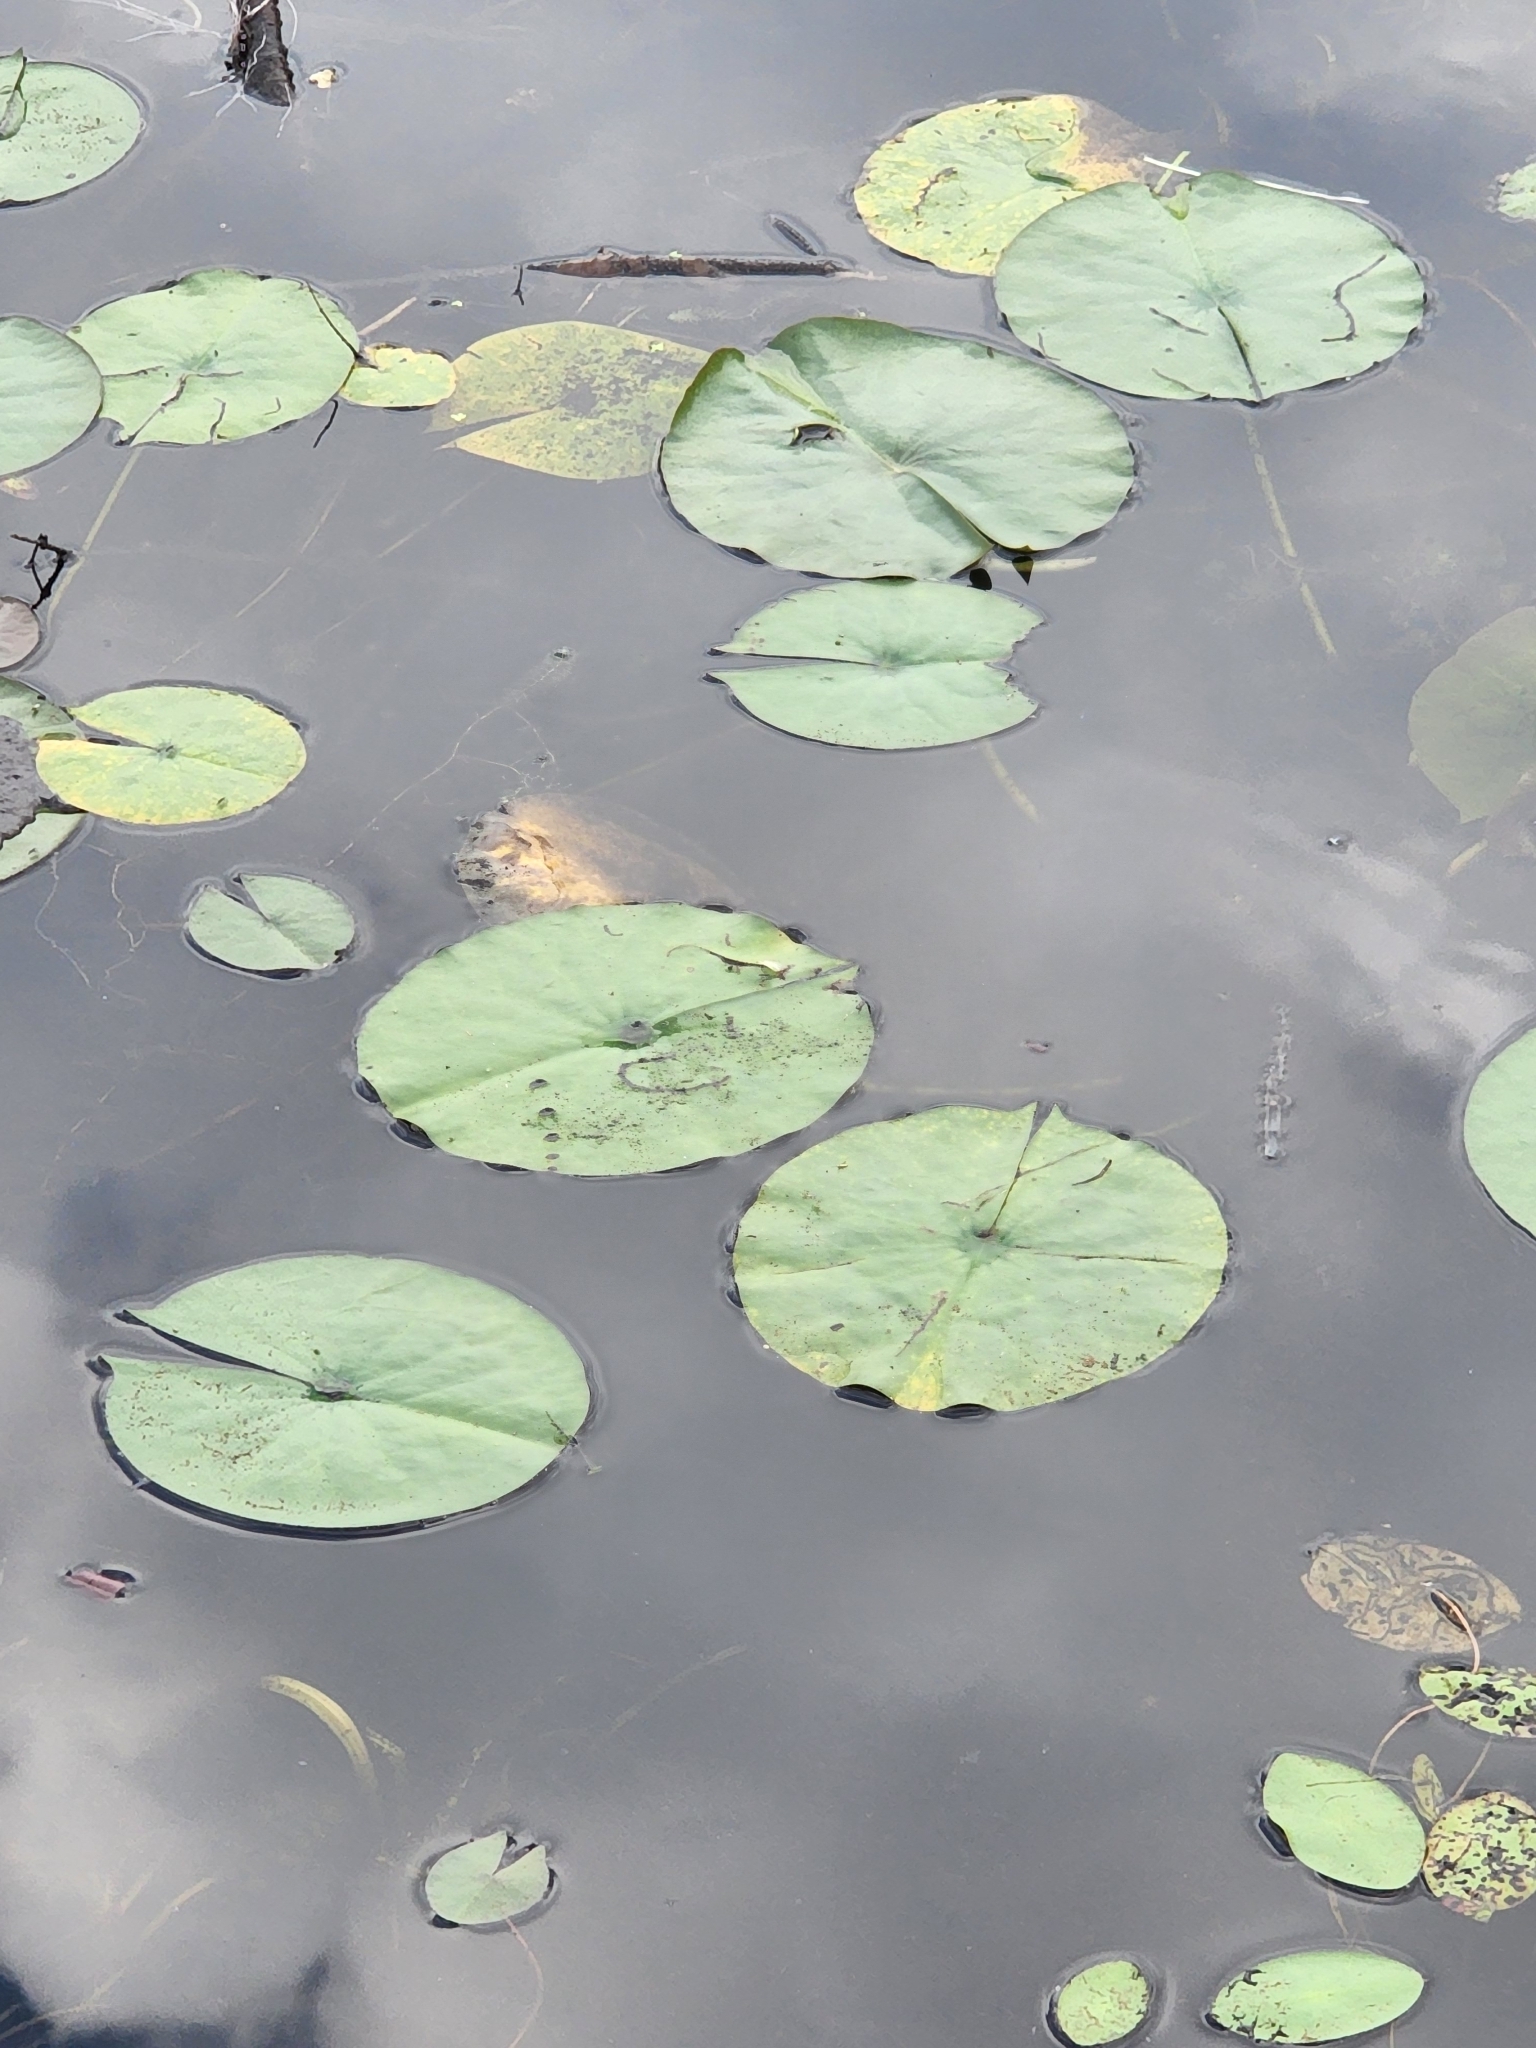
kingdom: Plantae
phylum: Tracheophyta
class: Magnoliopsida
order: Nymphaeales
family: Nymphaeaceae
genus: Nymphaea
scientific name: Nymphaea odorata
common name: Fragrant water-lily
